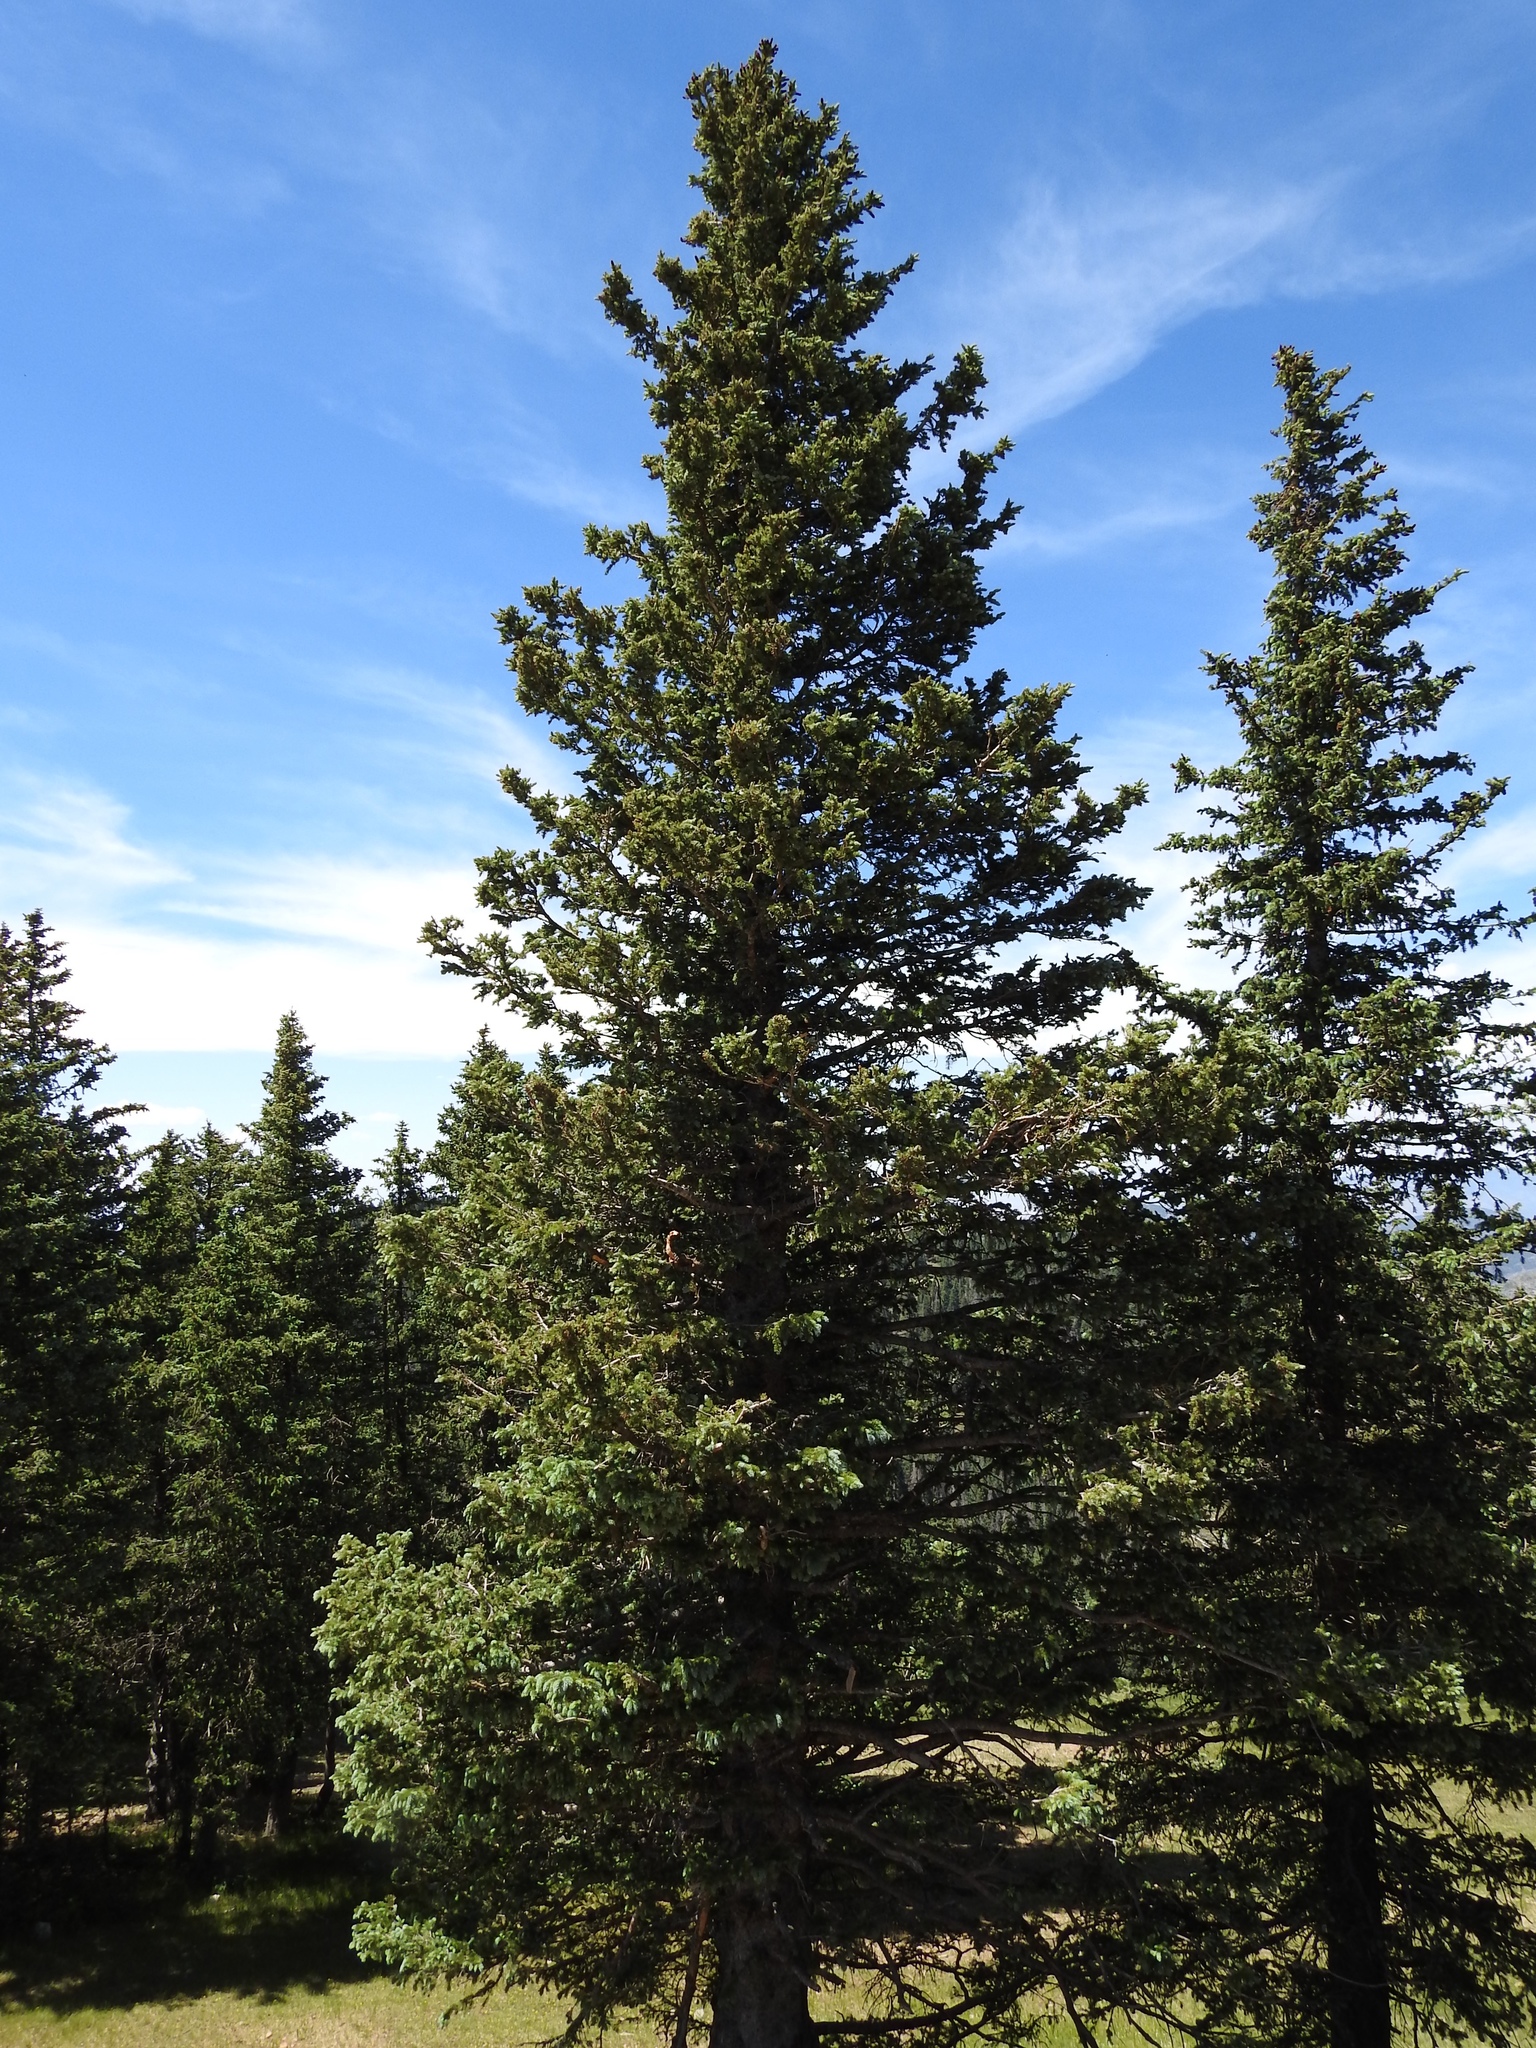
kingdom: Plantae
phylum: Tracheophyta
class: Pinopsida
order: Pinales
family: Pinaceae
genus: Picea
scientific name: Picea engelmannii
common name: Engelmann spruce
